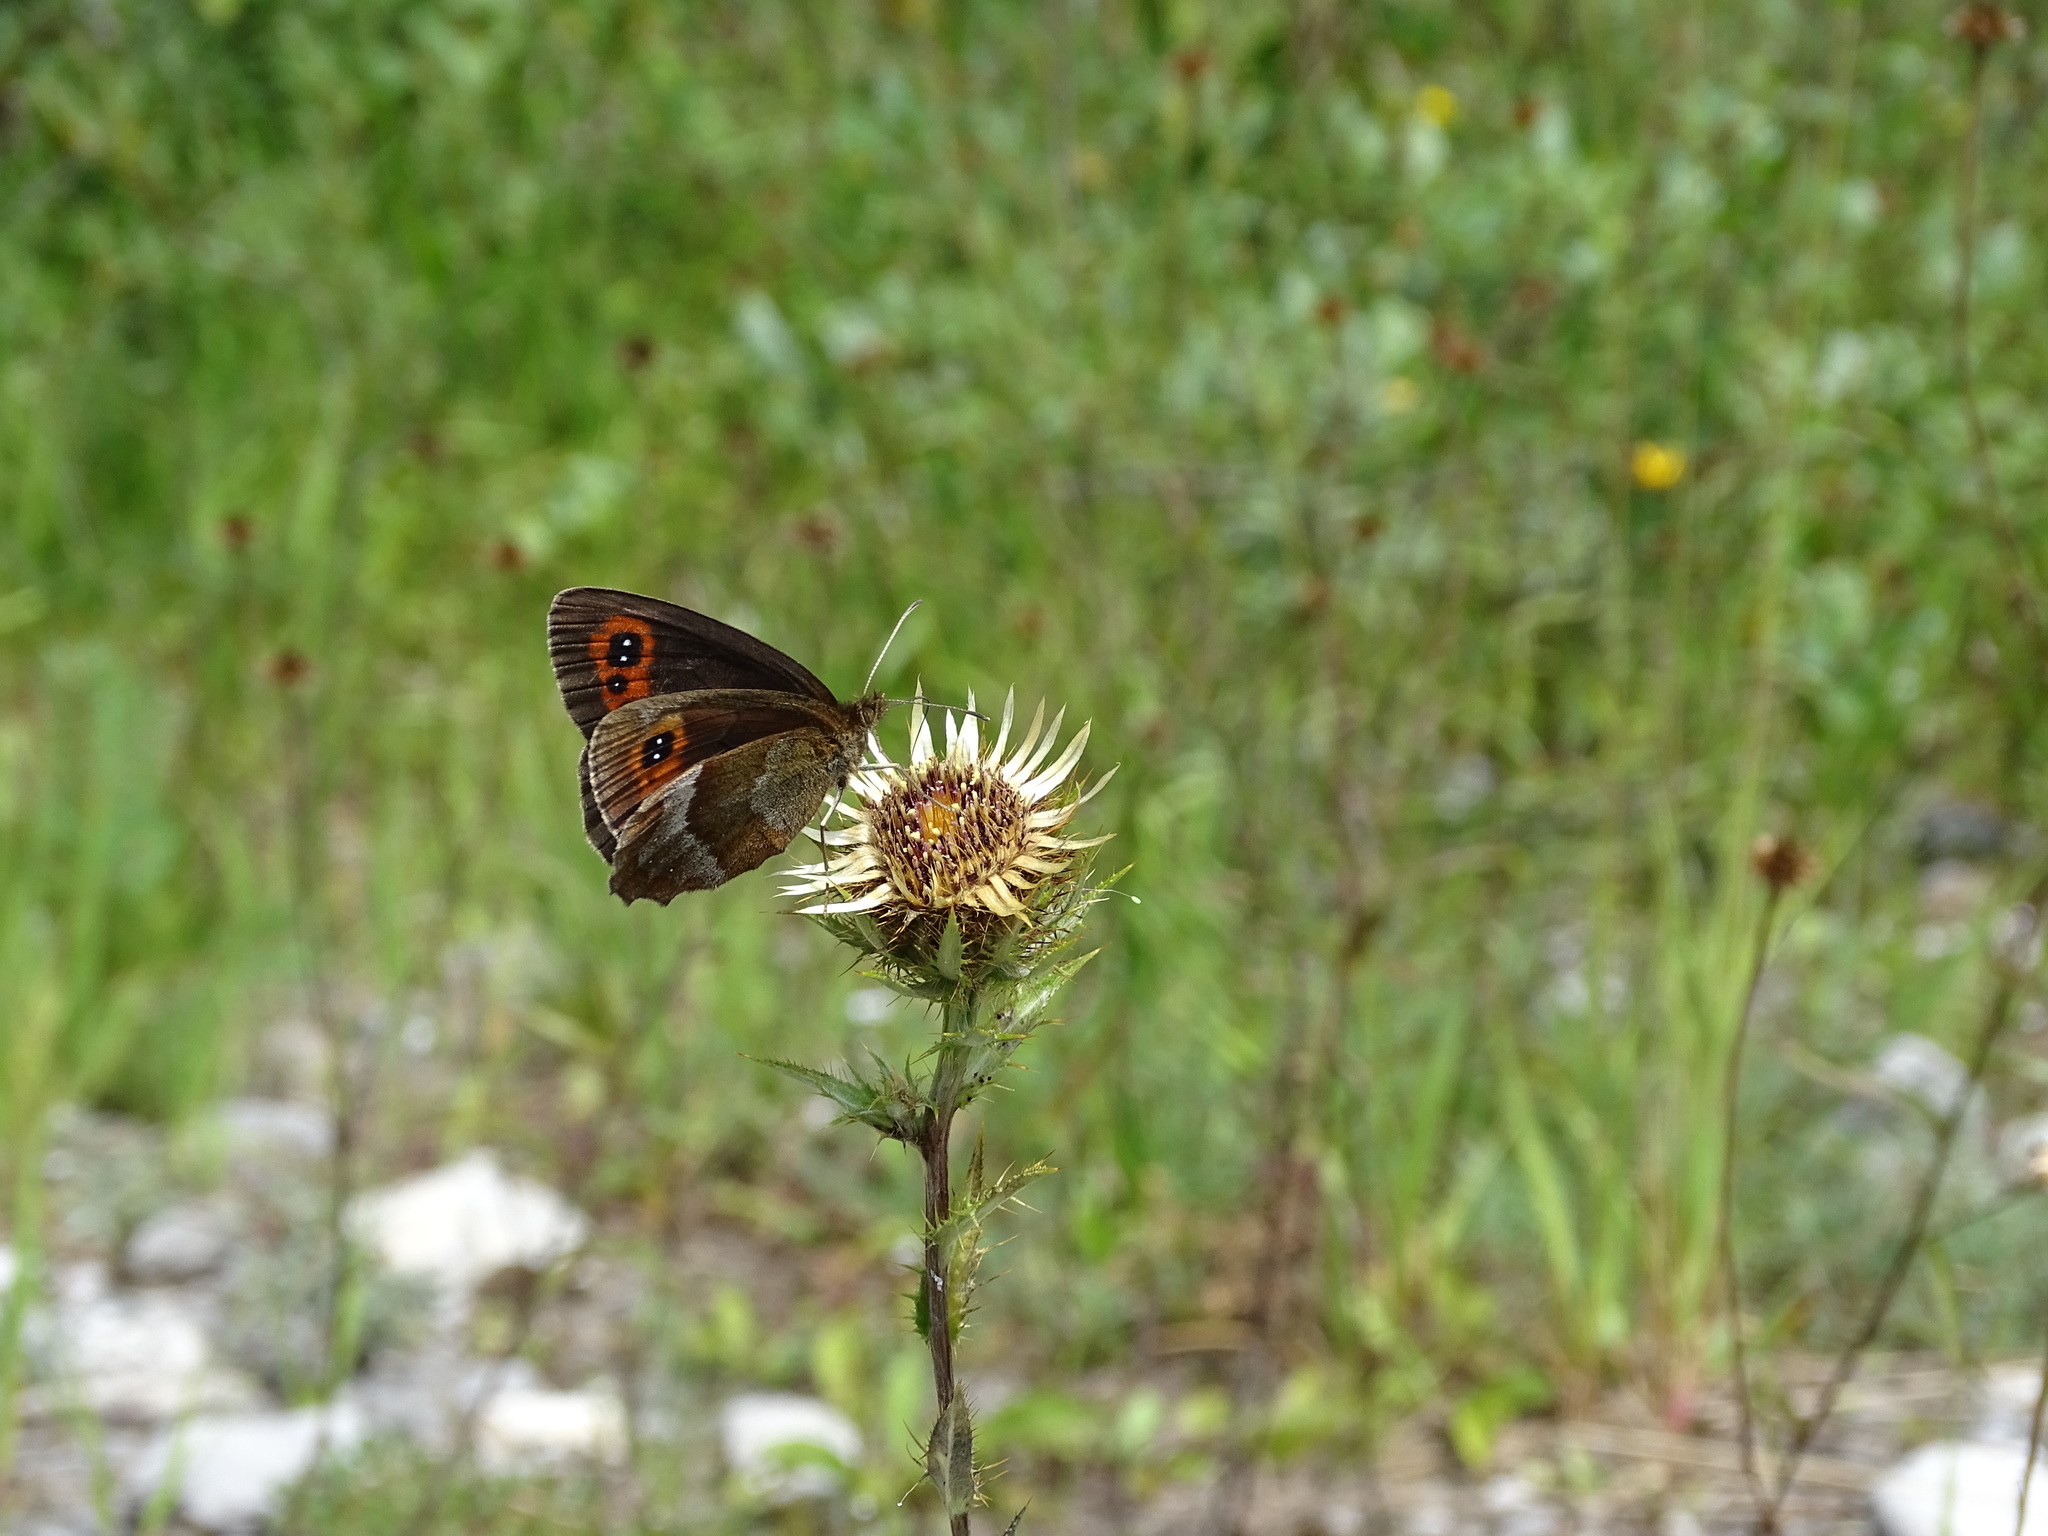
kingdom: Animalia
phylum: Arthropoda
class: Insecta
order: Lepidoptera
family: Nymphalidae
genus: Erebia
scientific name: Erebia aethiops
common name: Scotch argus
